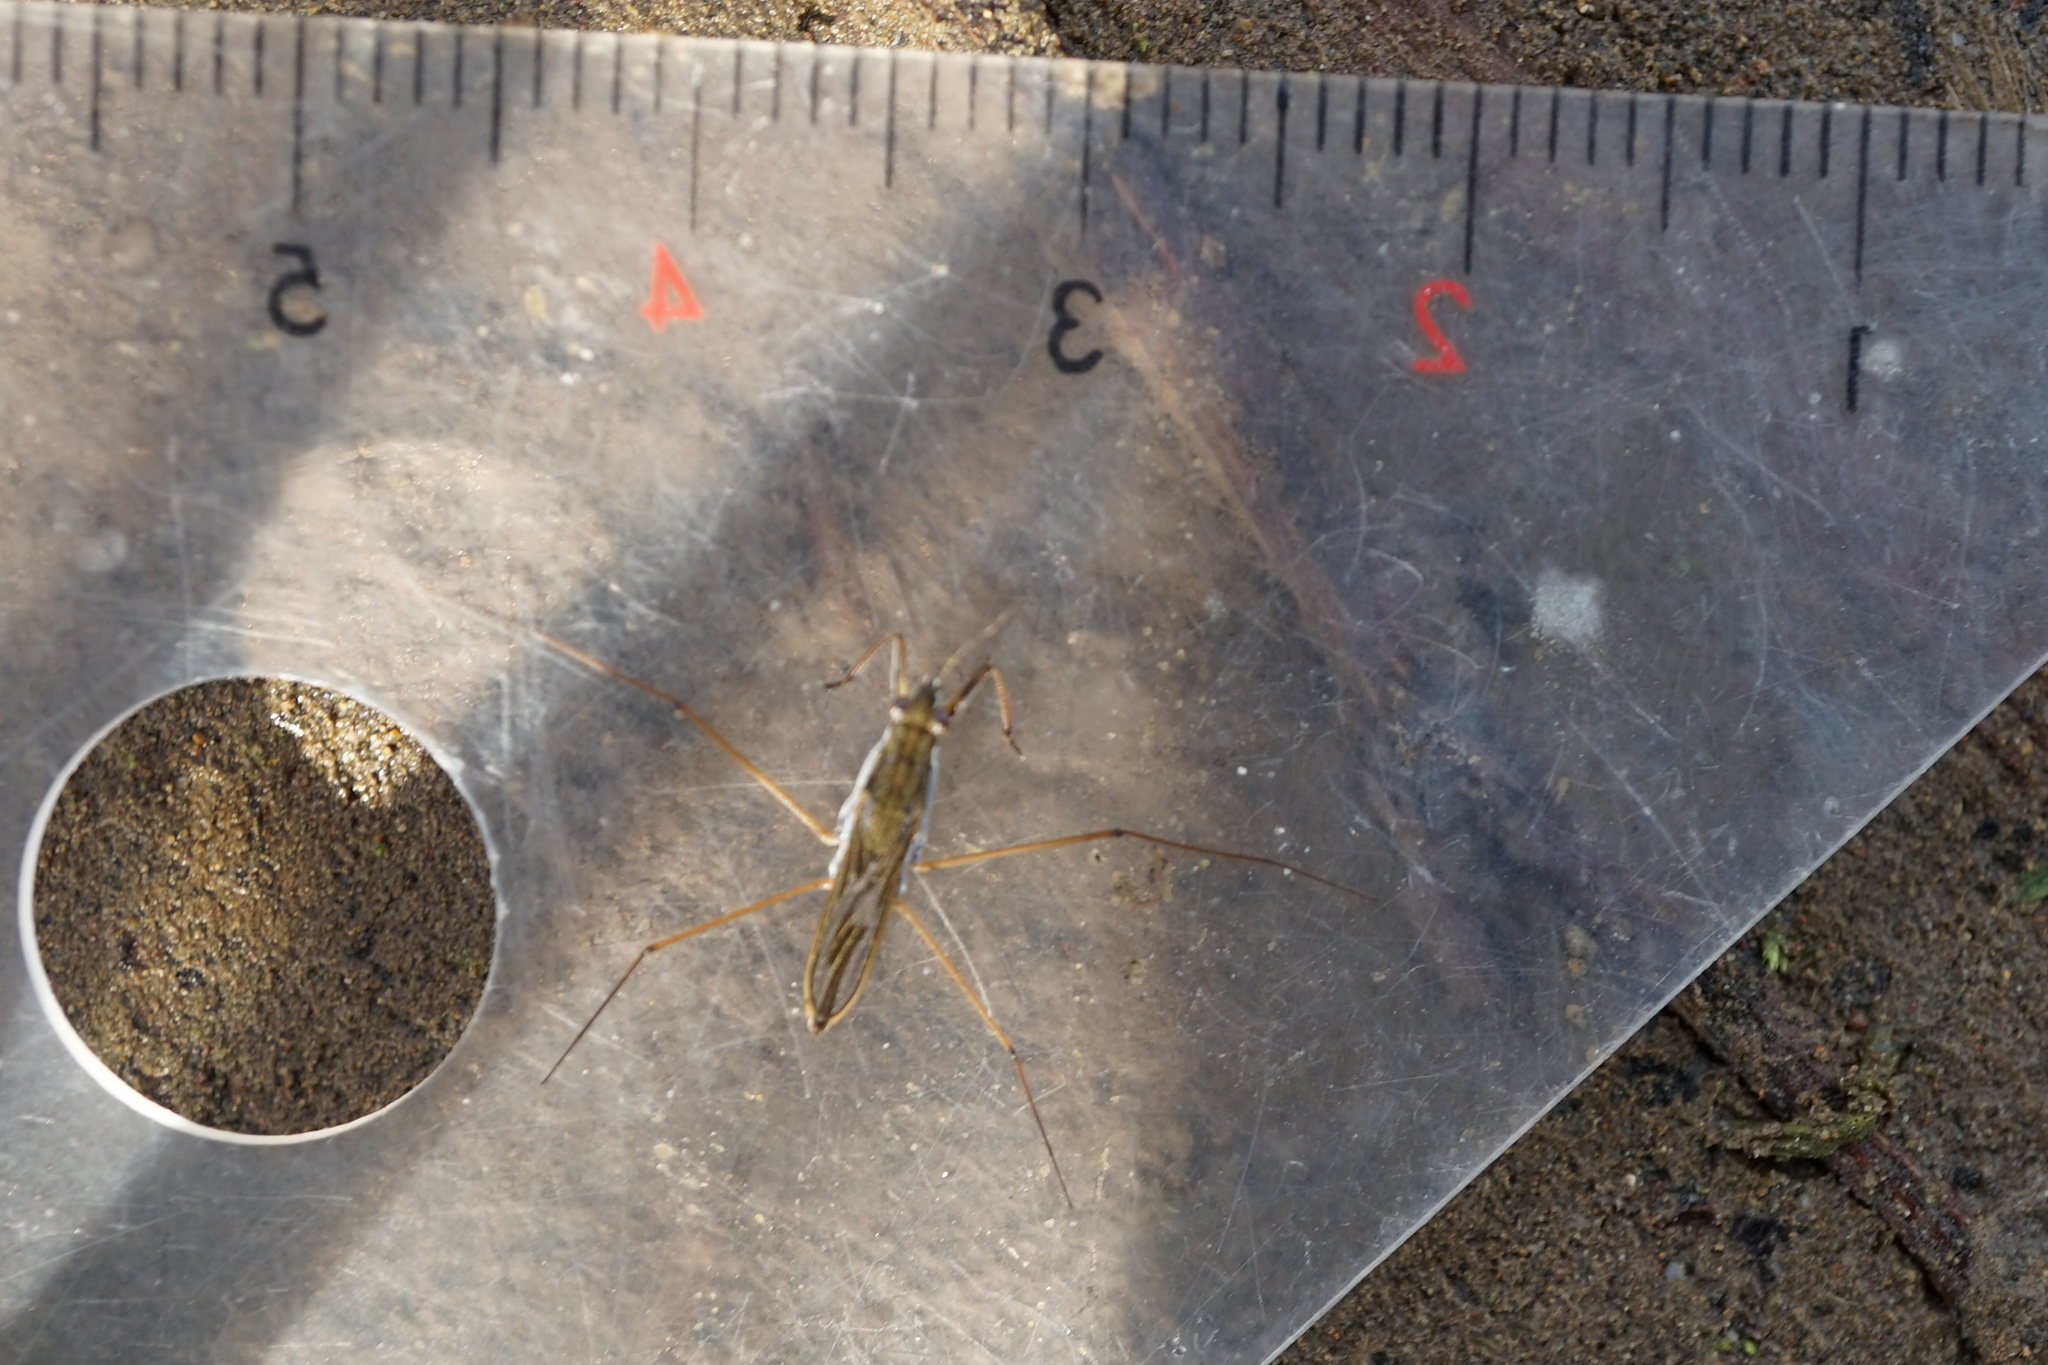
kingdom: Animalia
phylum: Arthropoda
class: Insecta
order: Hemiptera
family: Gerridae
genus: Gerris
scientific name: Gerris latiabdominis
